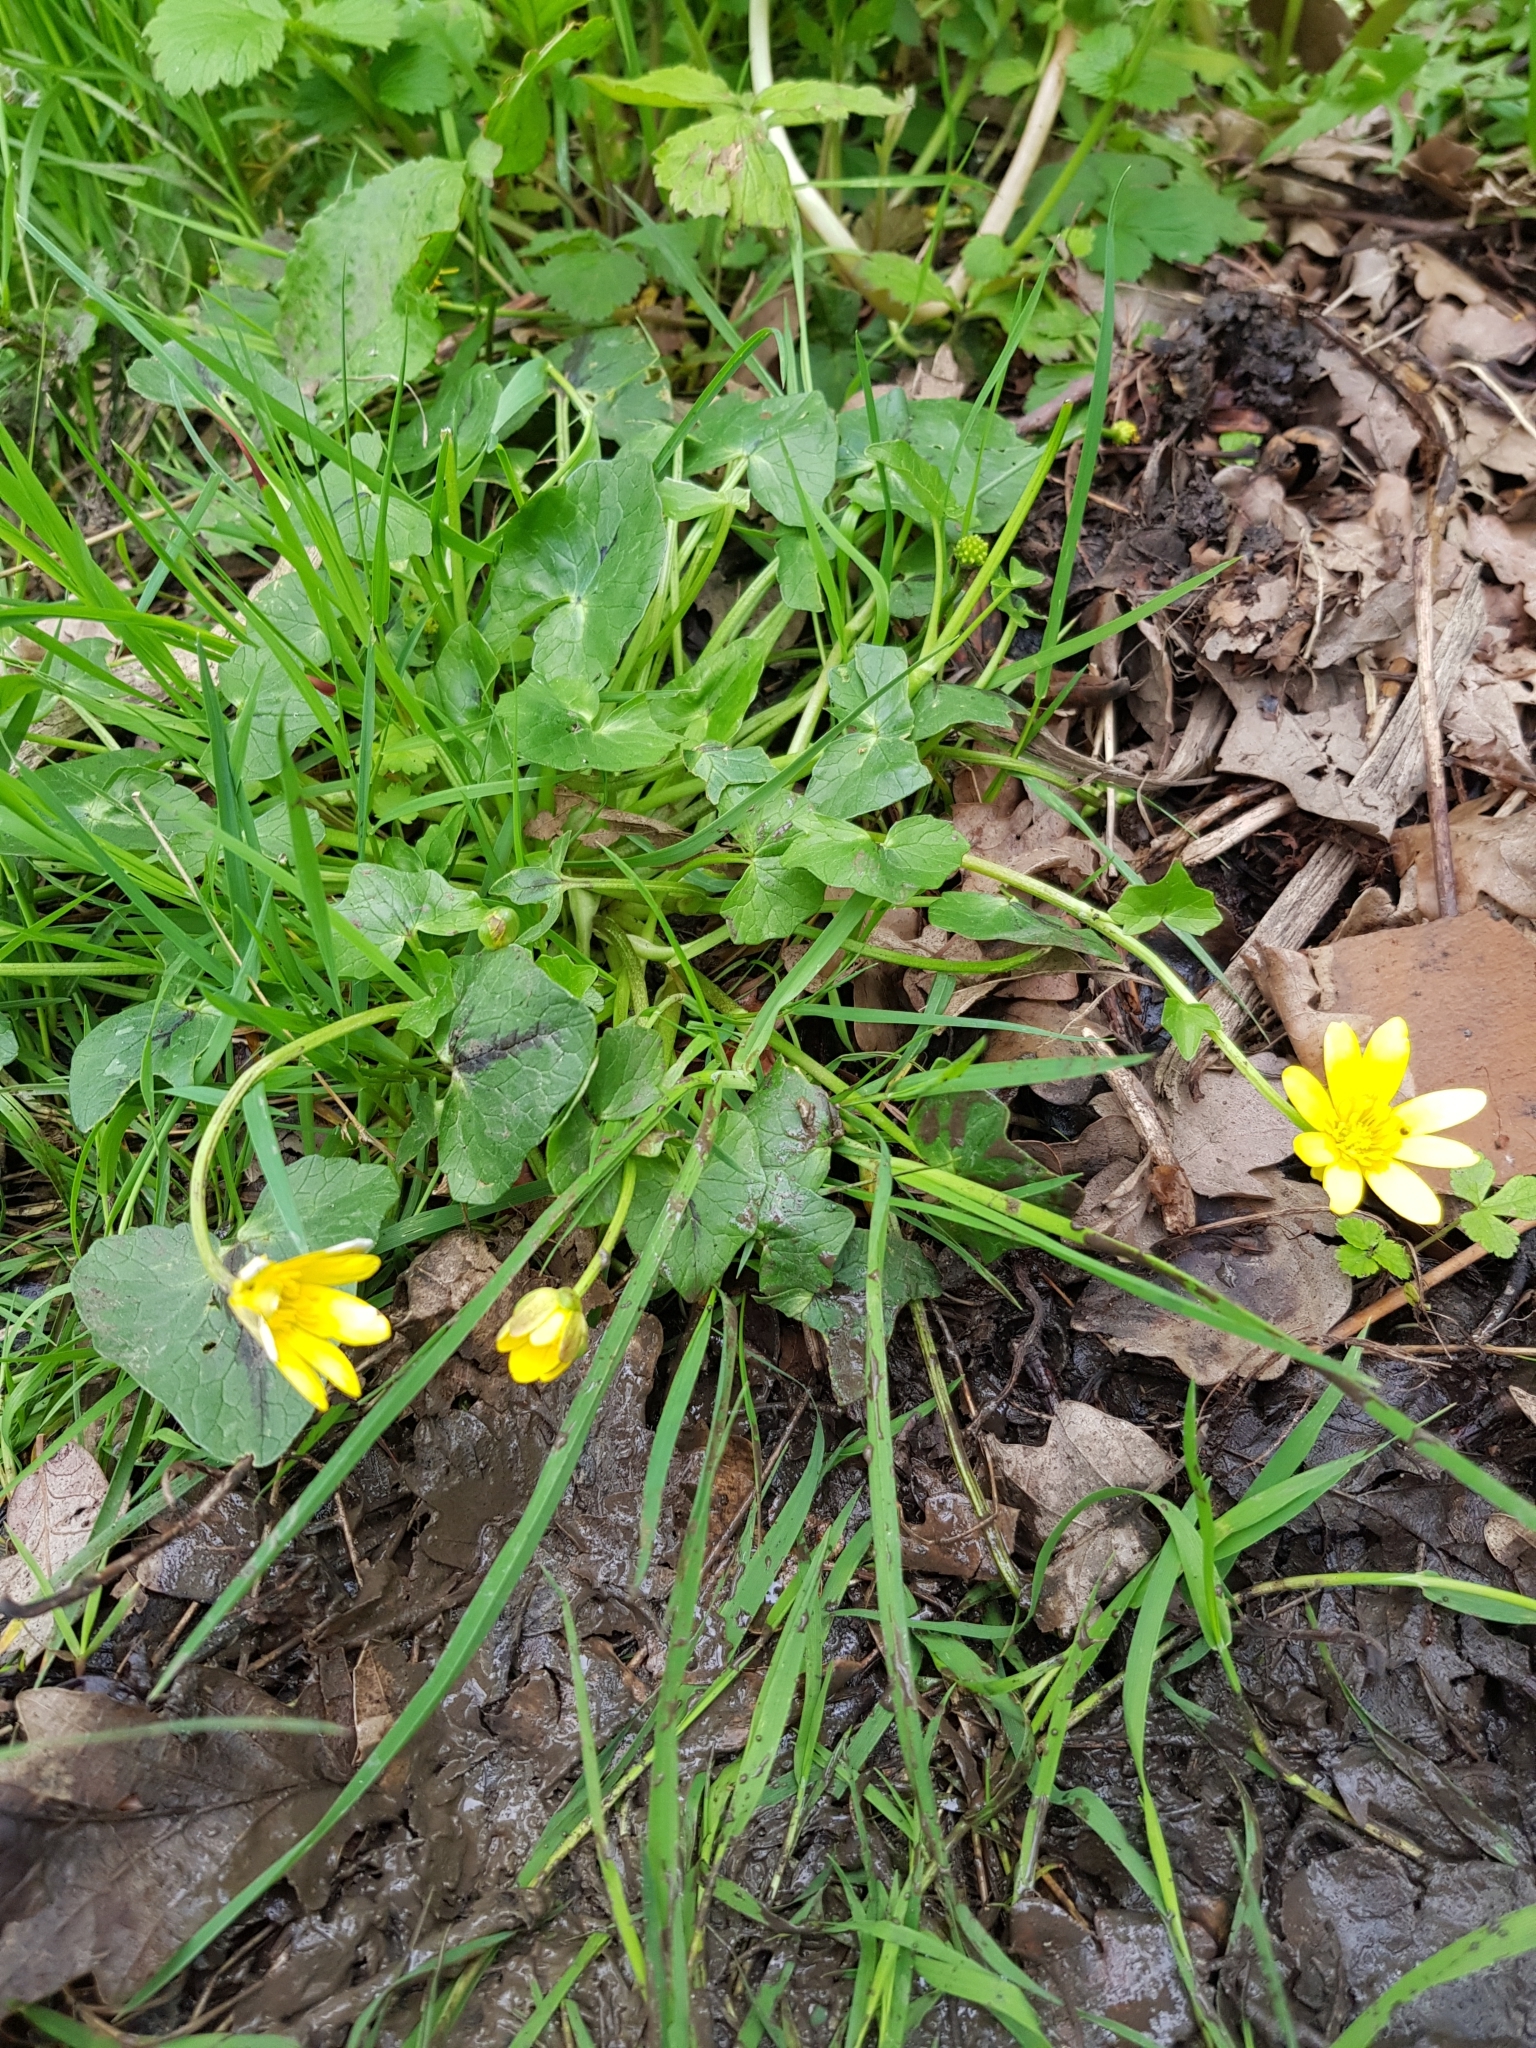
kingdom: Plantae
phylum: Tracheophyta
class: Magnoliopsida
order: Ranunculales
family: Ranunculaceae
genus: Ficaria
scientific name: Ficaria verna
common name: Lesser celandine
